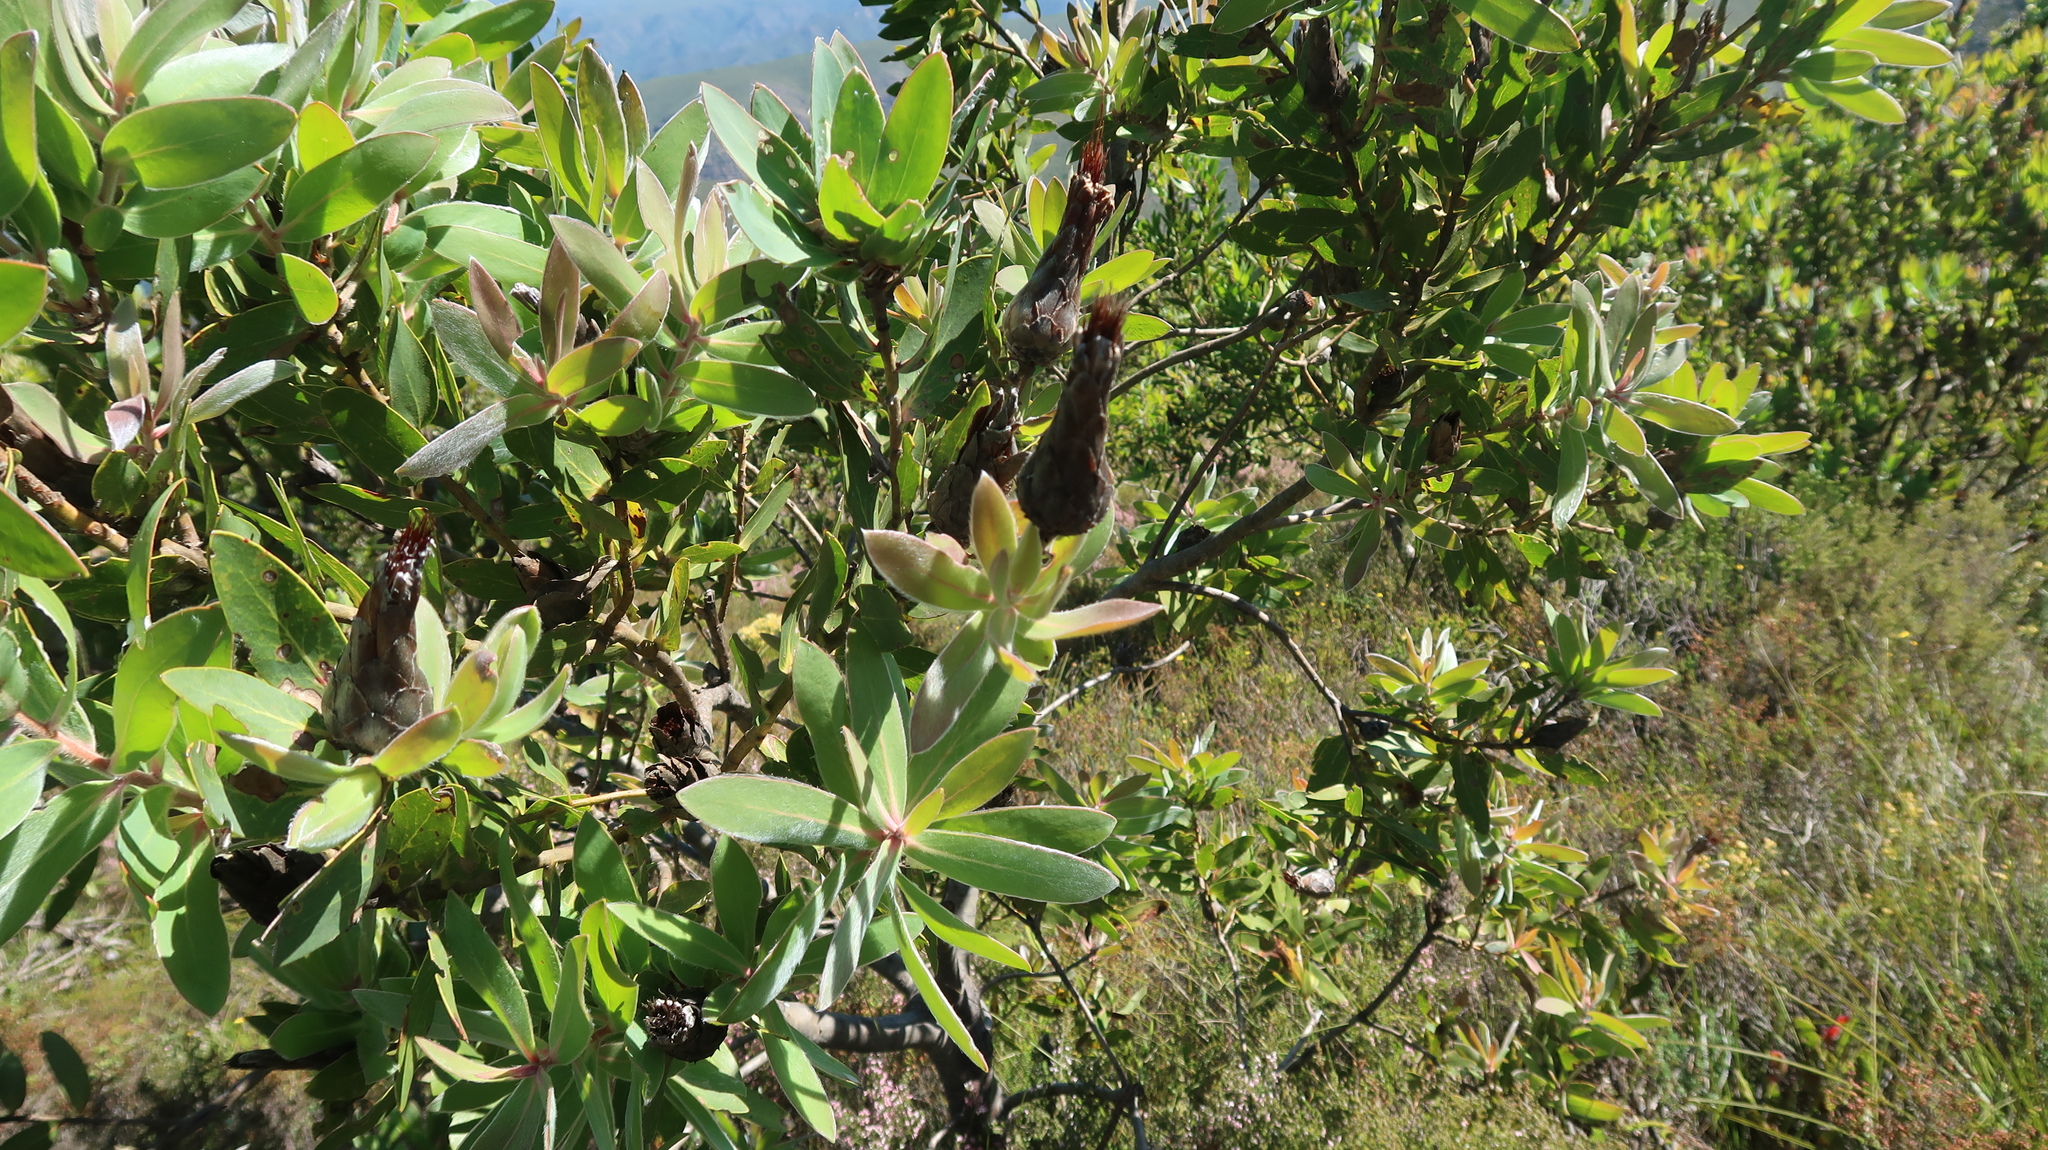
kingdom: Plantae
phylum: Tracheophyta
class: Magnoliopsida
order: Proteales
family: Proteaceae
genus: Protea
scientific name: Protea mundii
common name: Forest sugarbush
